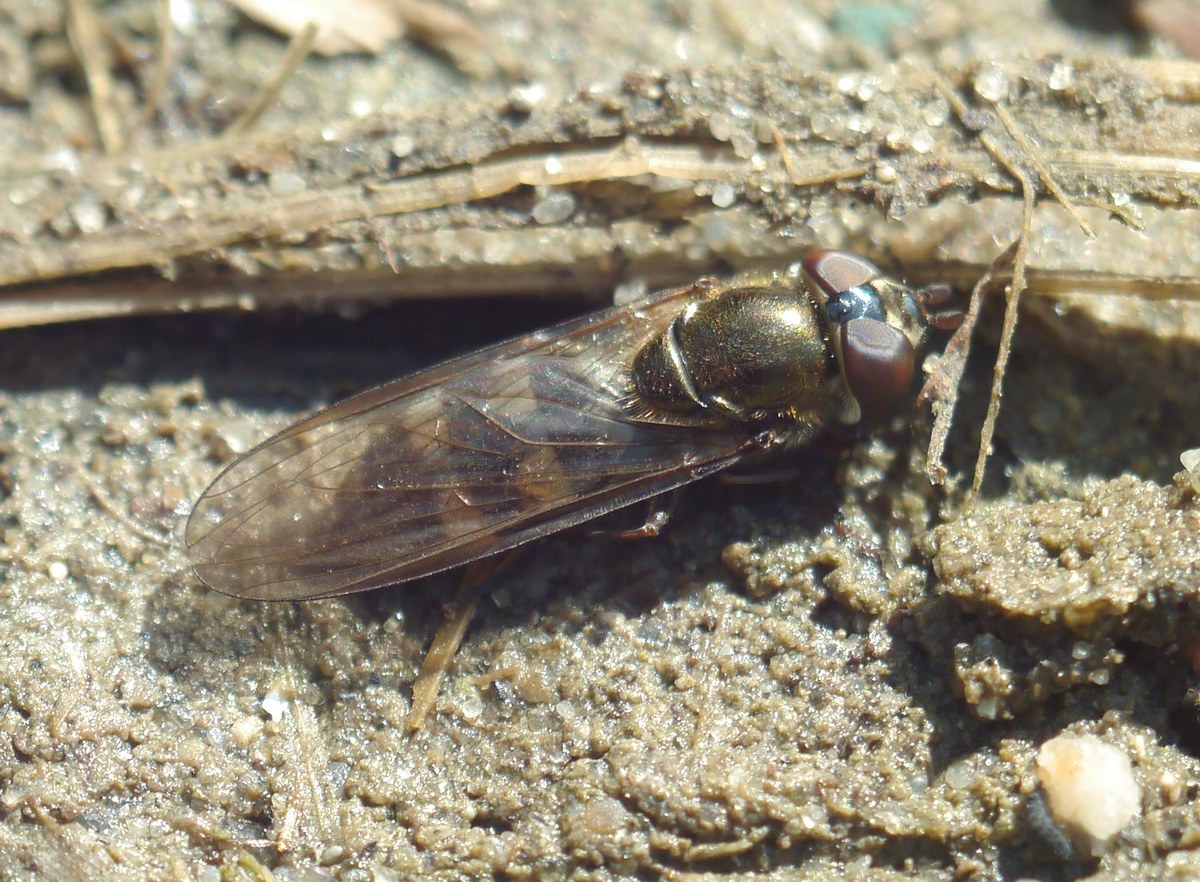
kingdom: Animalia
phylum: Arthropoda
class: Insecta
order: Diptera
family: Syrphidae
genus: Xanthandrus
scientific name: Xanthandrus comtus
